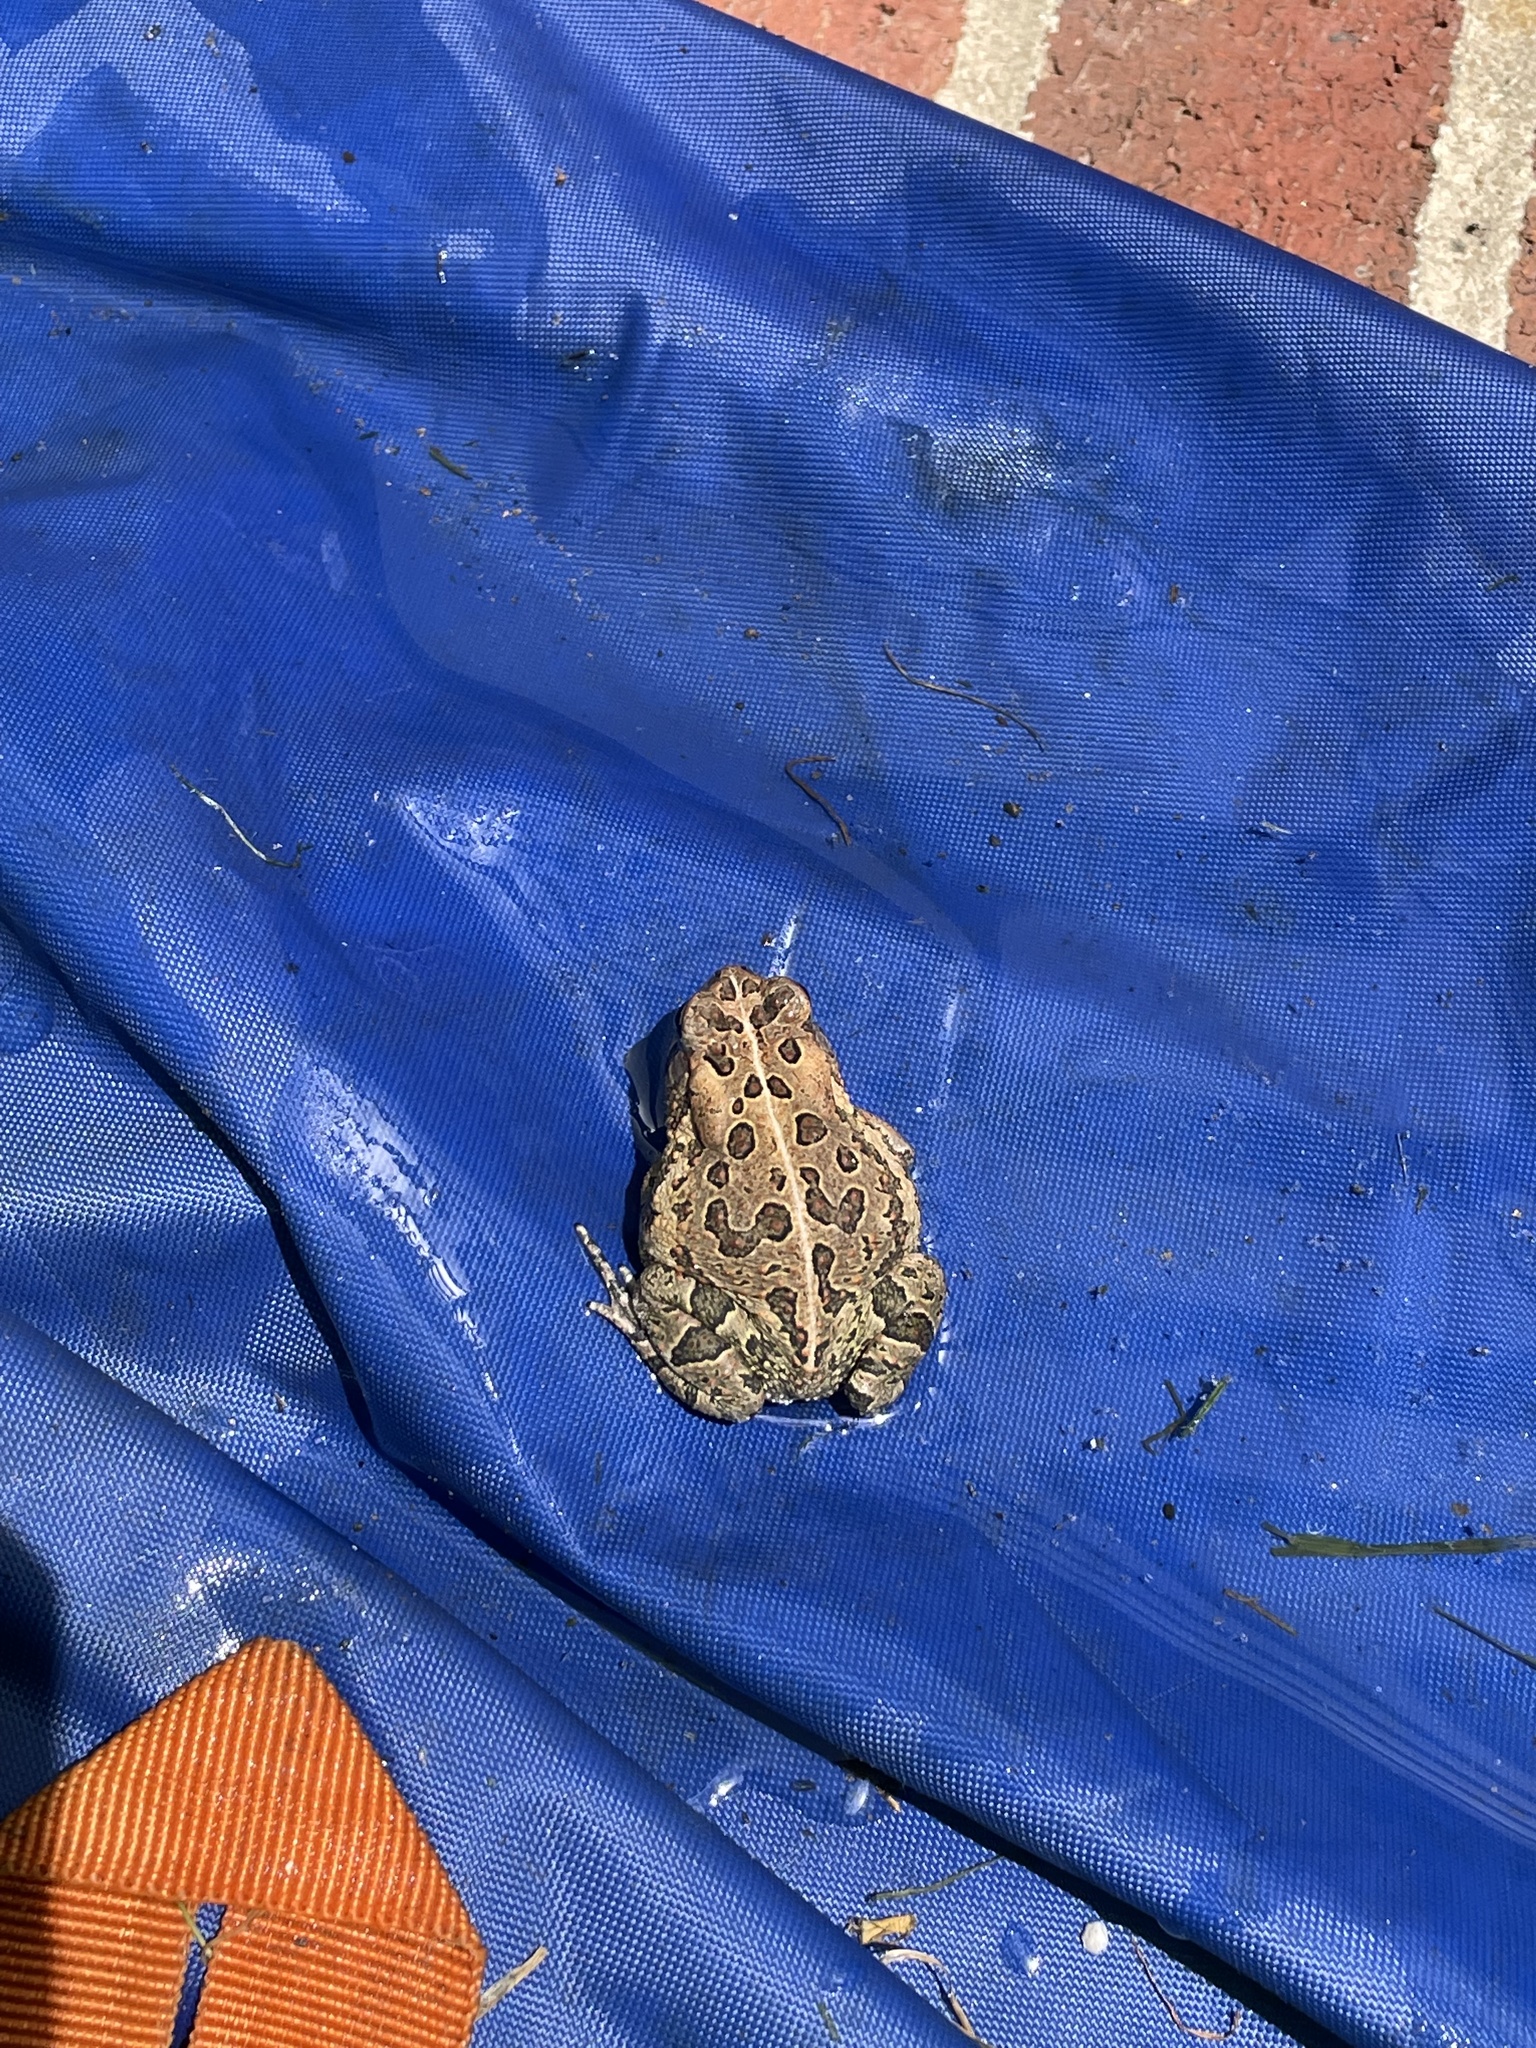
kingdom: Animalia
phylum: Chordata
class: Amphibia
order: Anura
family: Bufonidae
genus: Anaxyrus
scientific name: Anaxyrus fowleri
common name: Fowler's toad
